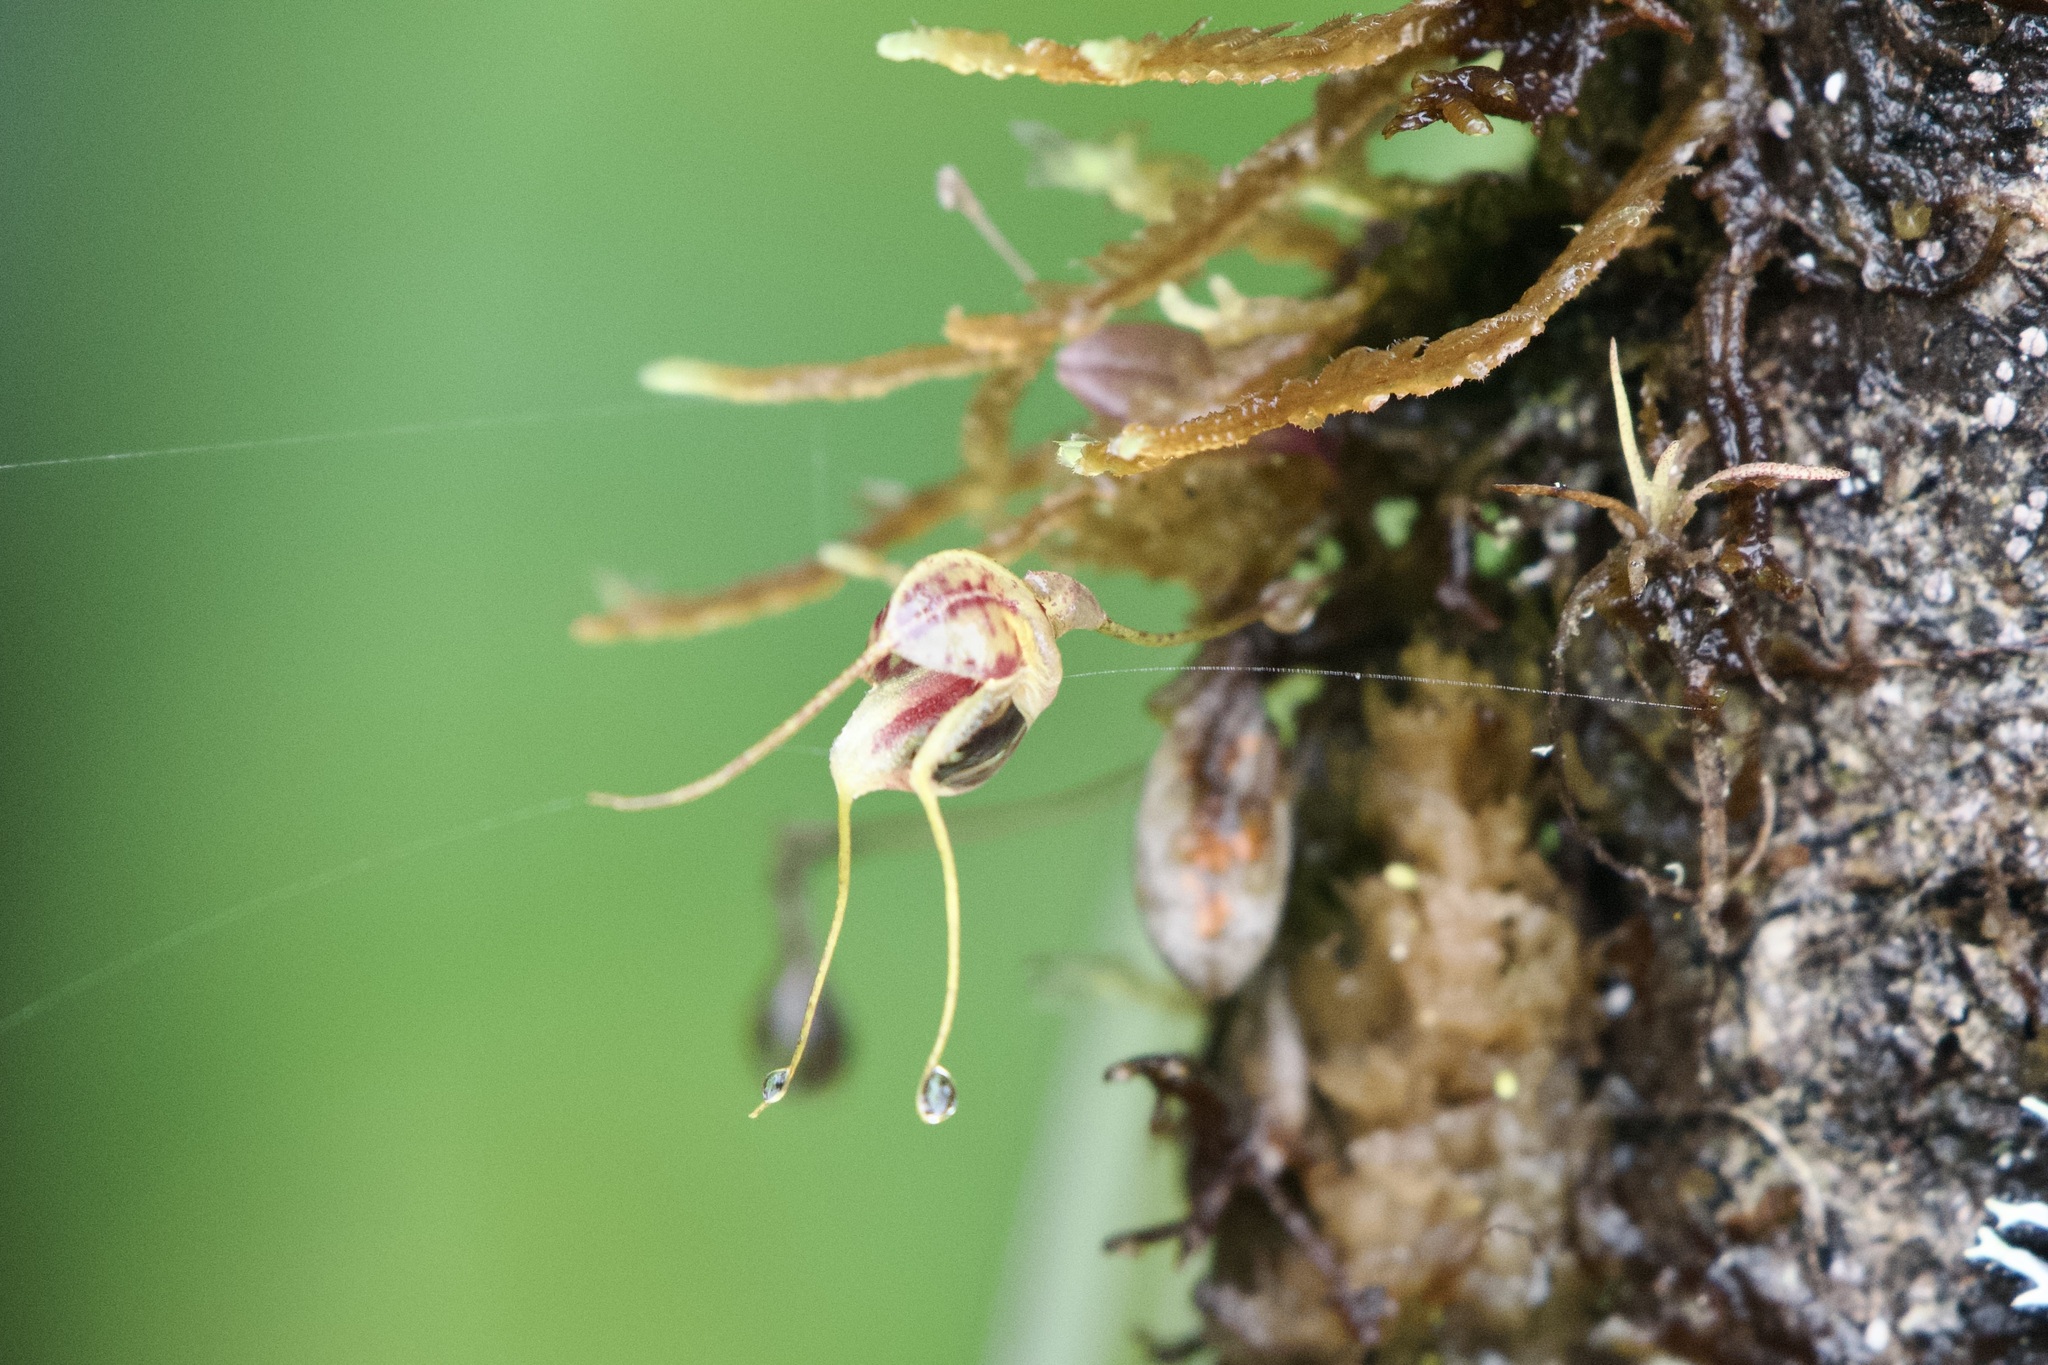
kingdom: Plantae
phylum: Tracheophyta
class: Liliopsida
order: Asparagales
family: Orchidaceae
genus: Masdevallia
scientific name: Masdevallia nidifica
